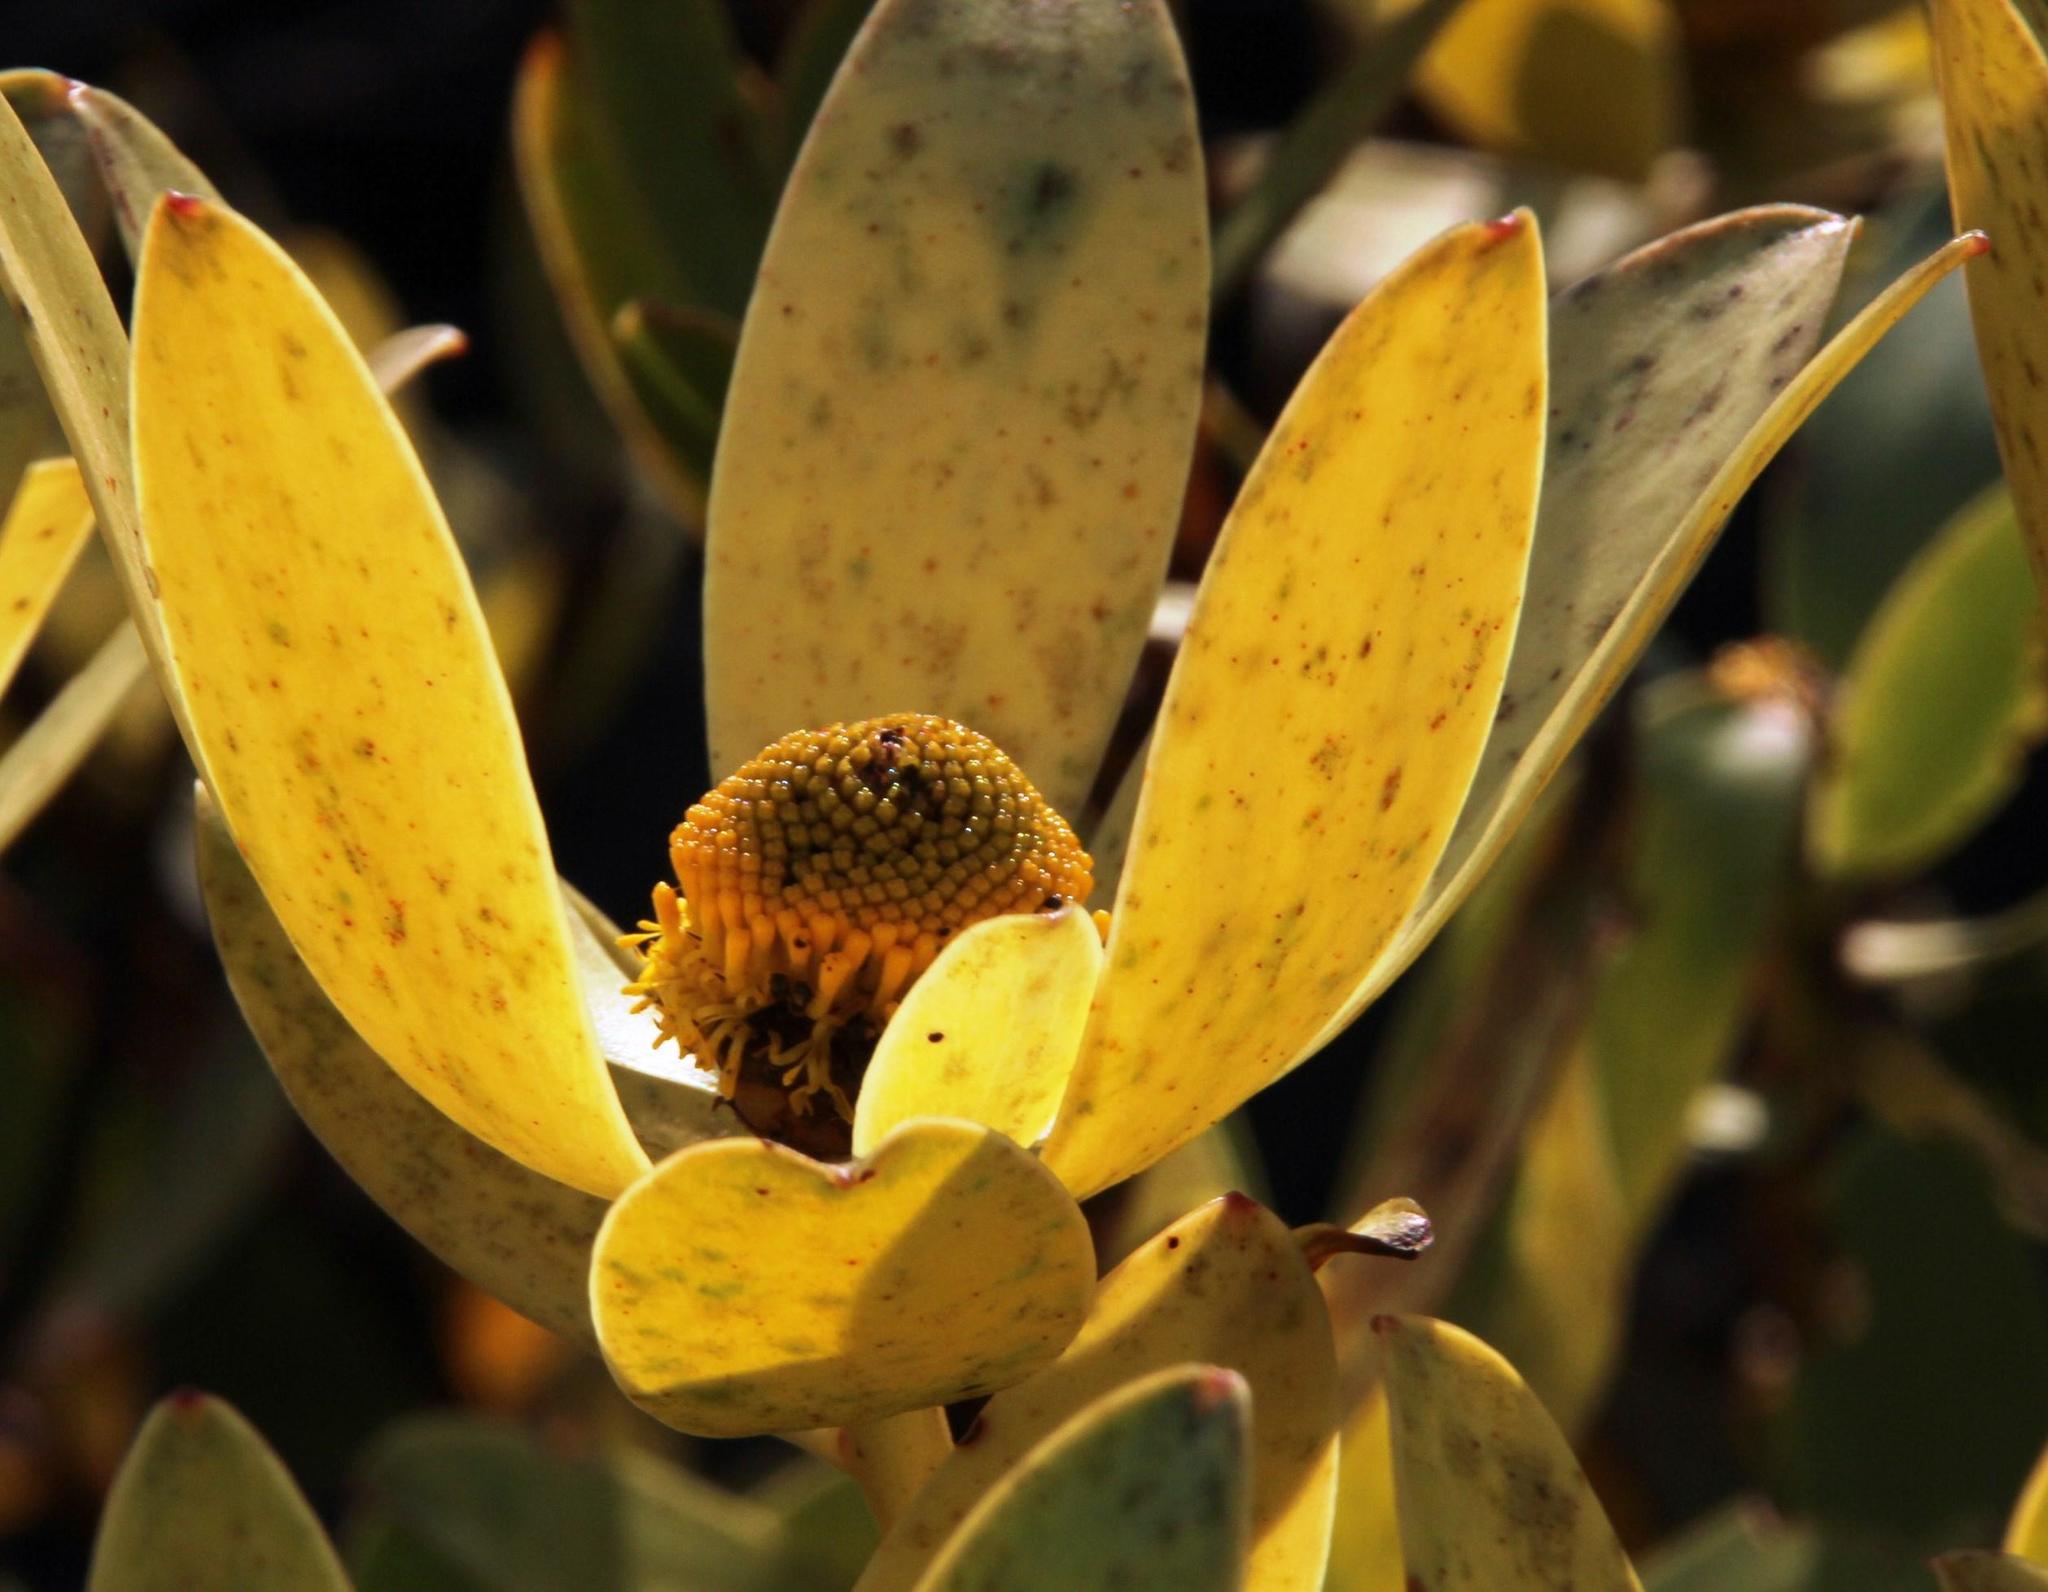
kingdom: Plantae
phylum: Tracheophyta
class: Magnoliopsida
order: Proteales
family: Proteaceae
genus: Leucadendron
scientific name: Leucadendron gandogeri
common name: Broad-leaf conebush
